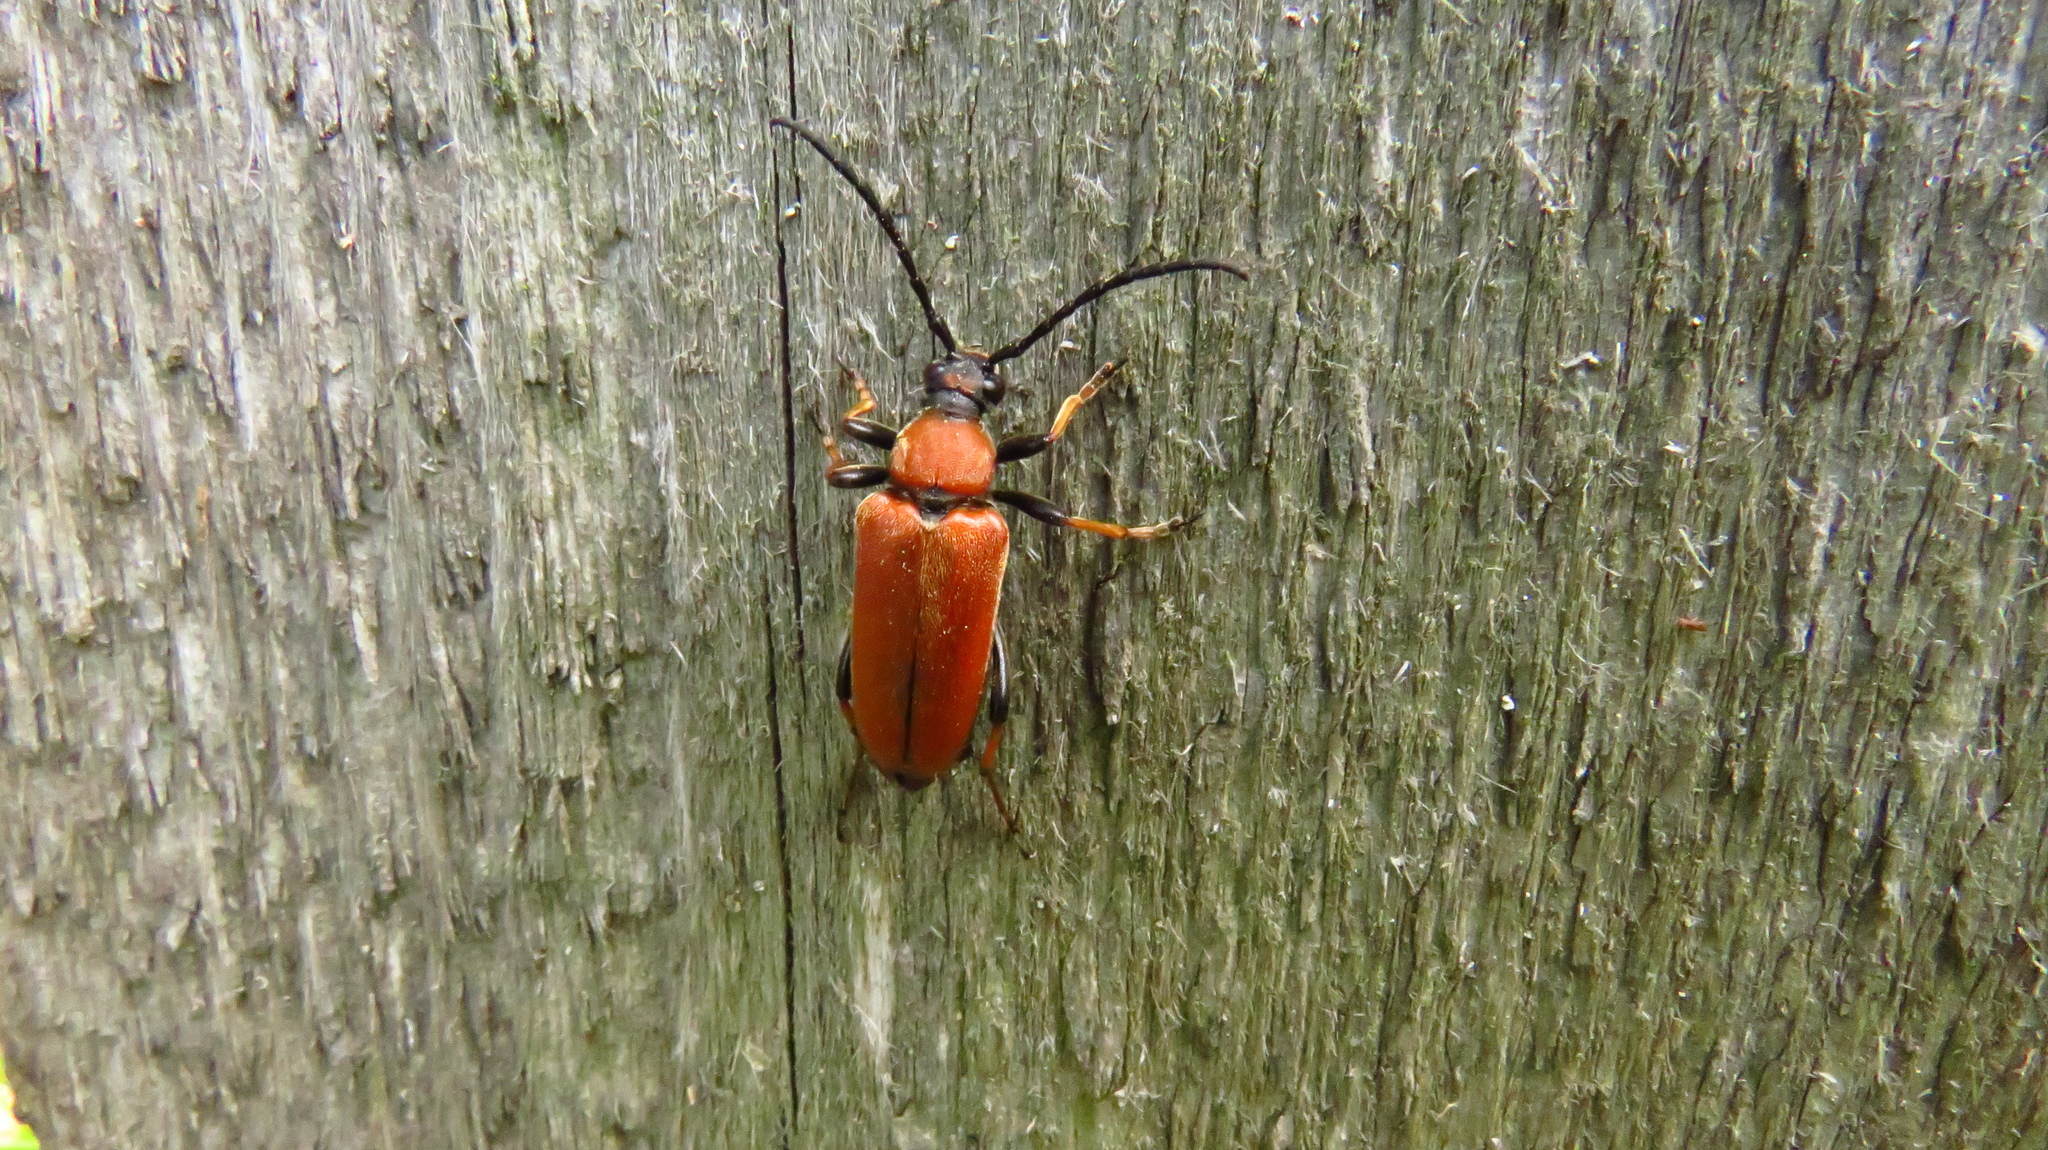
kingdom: Animalia
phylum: Arthropoda
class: Insecta
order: Coleoptera
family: Cerambycidae
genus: Stictoleptura
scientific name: Stictoleptura rubra
